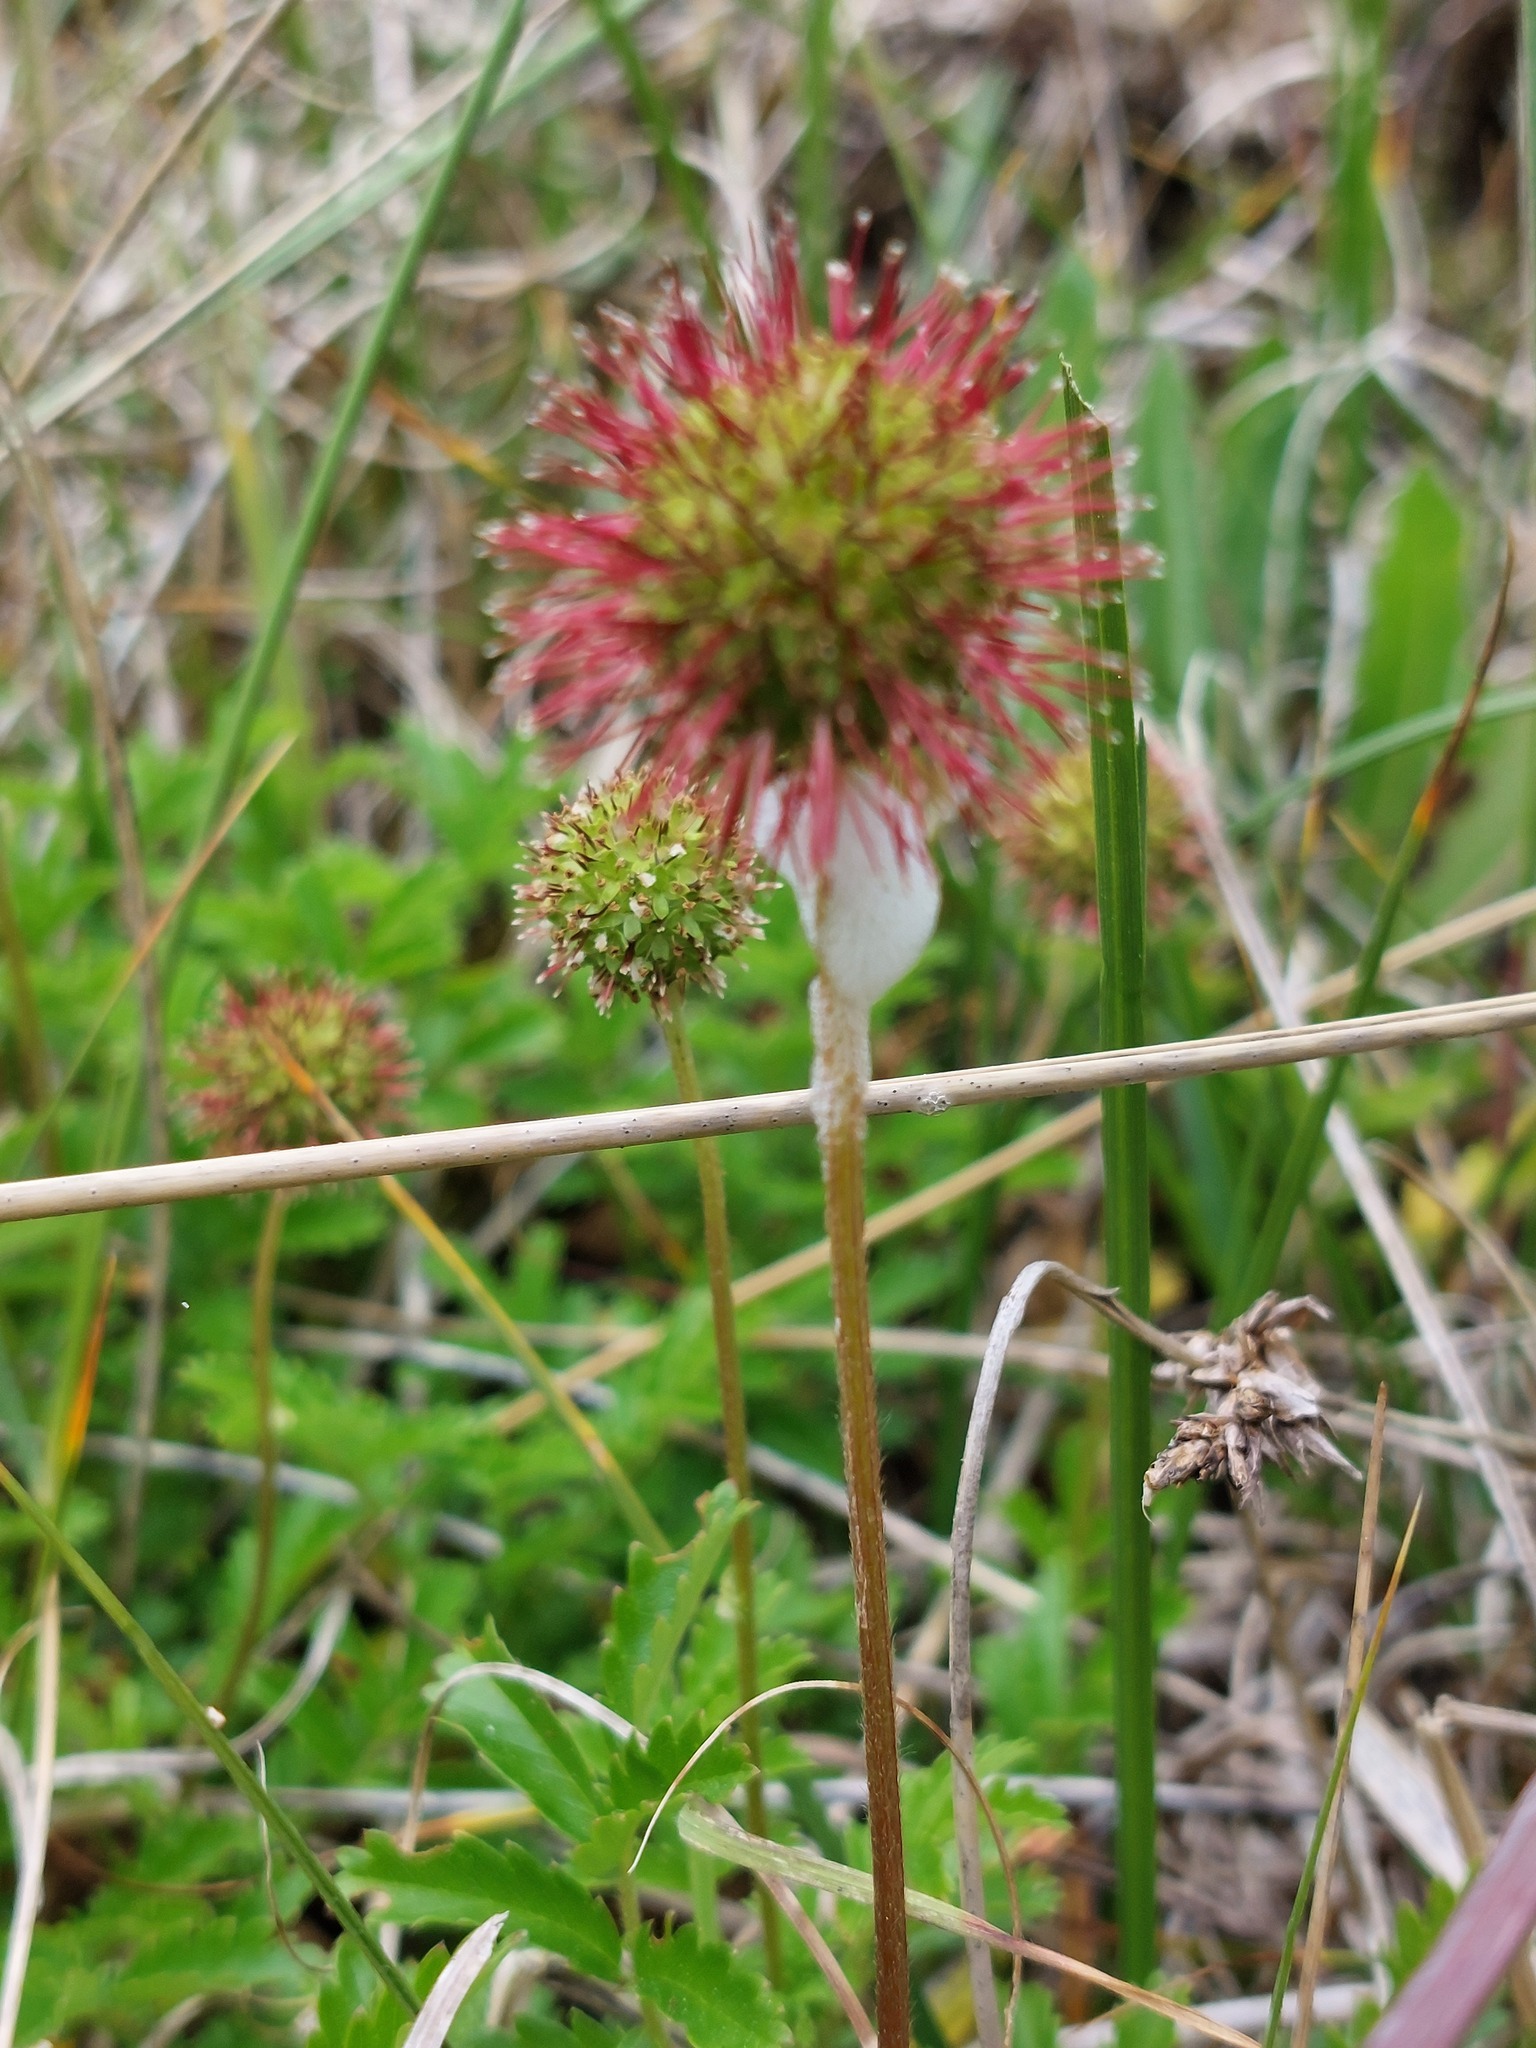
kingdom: Plantae
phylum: Tracheophyta
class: Magnoliopsida
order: Rosales
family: Rosaceae
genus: Acaena
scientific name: Acaena novae-zelandiae
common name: Pirri-pirri-bur
